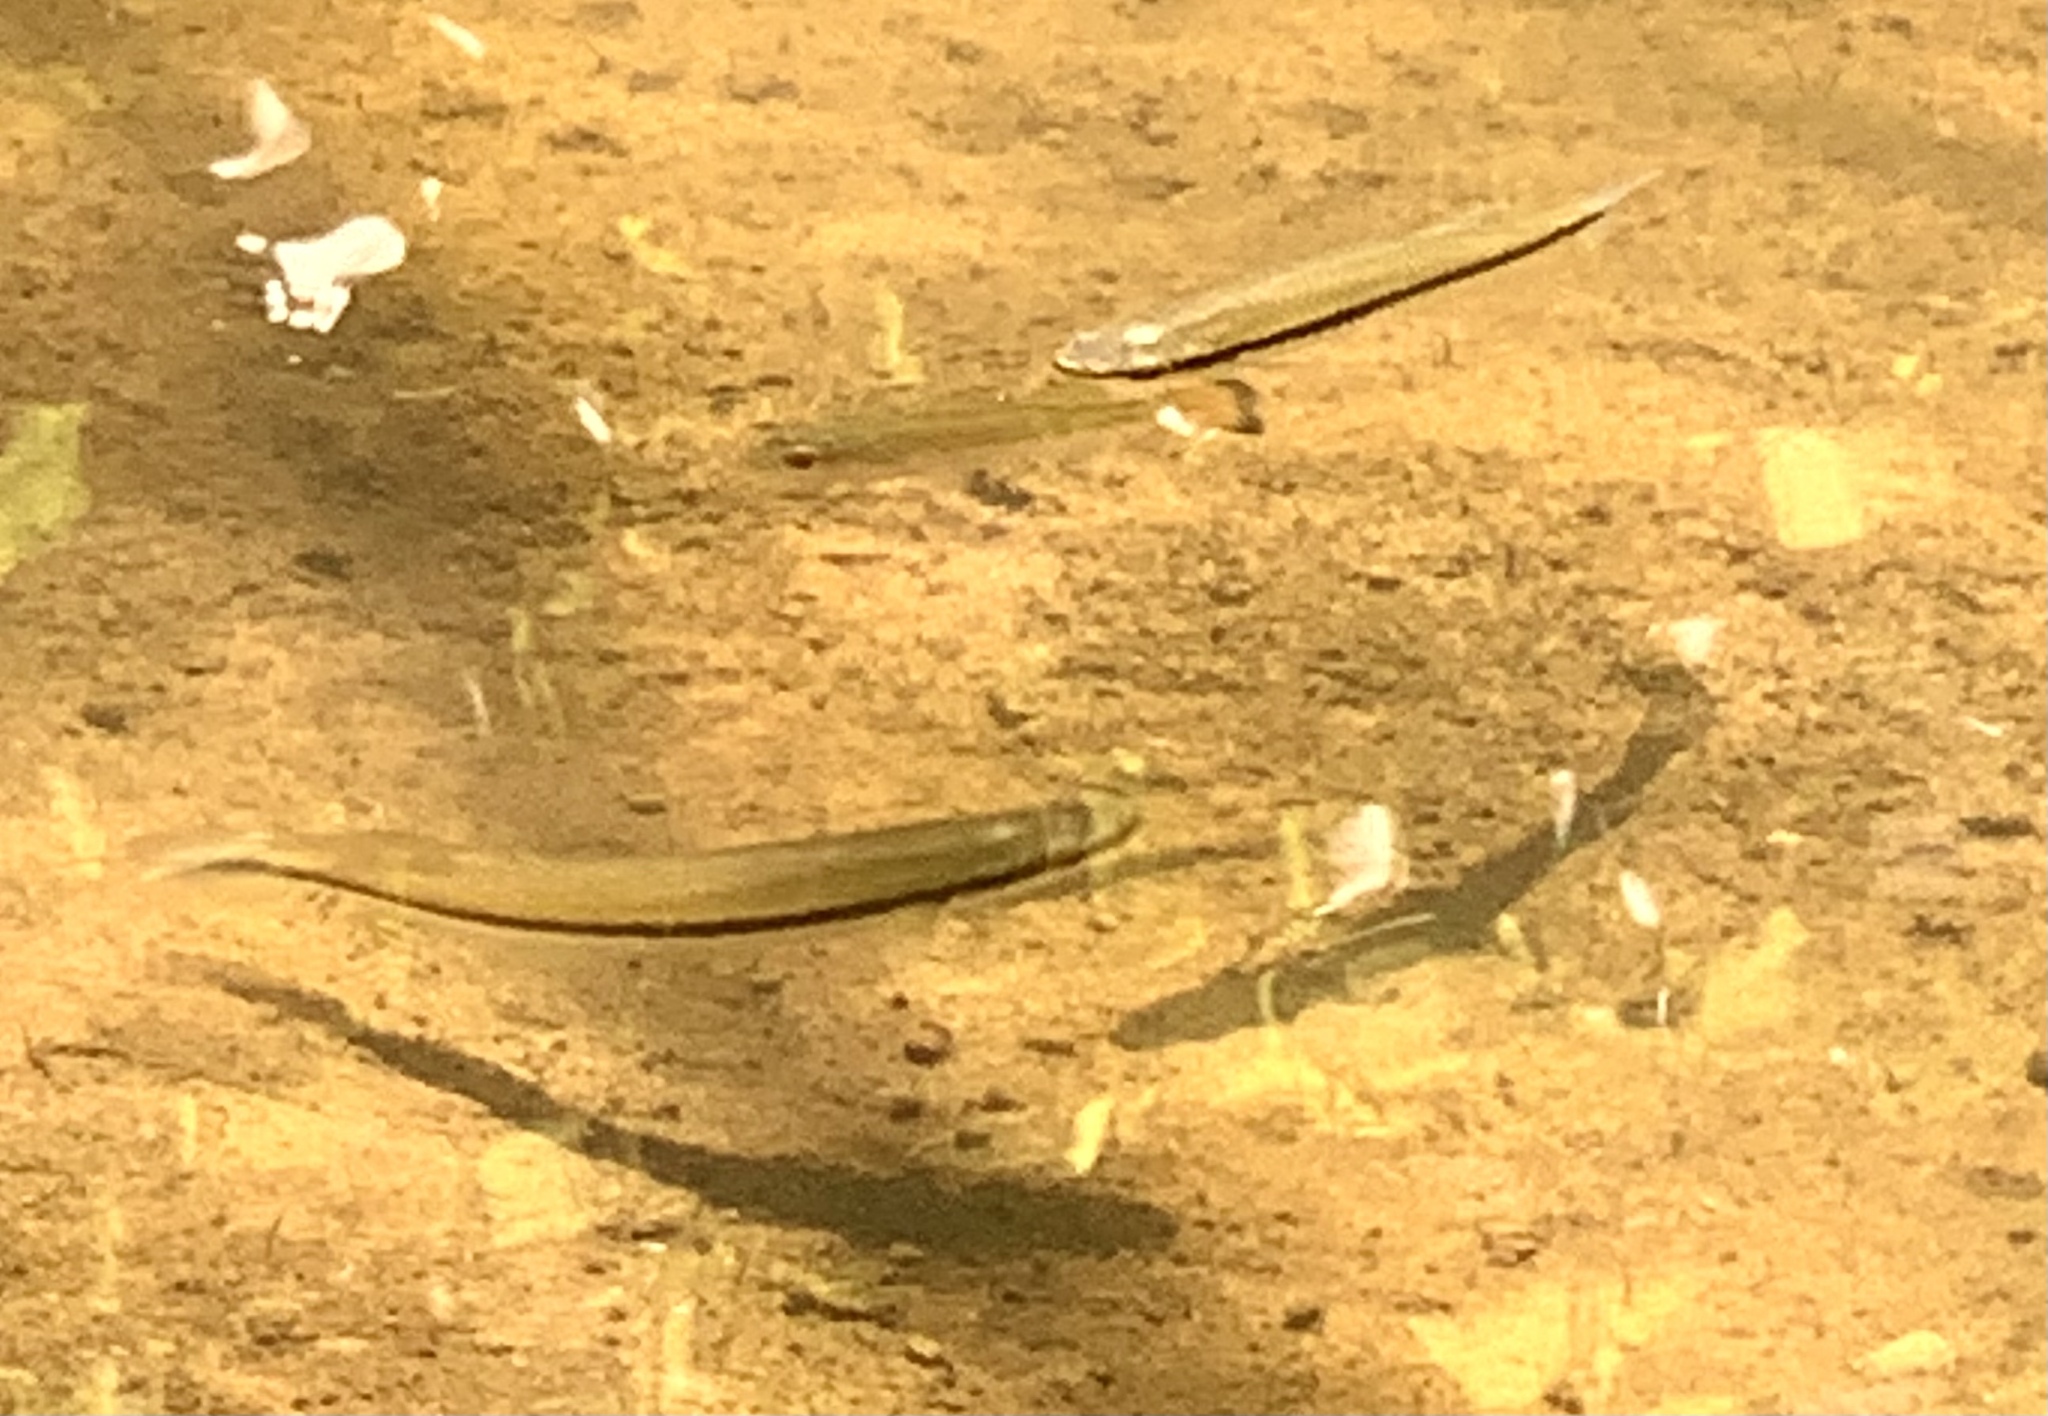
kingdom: Animalia
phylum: Chordata
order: Cyprinodontiformes
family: Fundulidae
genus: Fundulus
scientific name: Fundulus notatus
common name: Blackstripe topminnow
